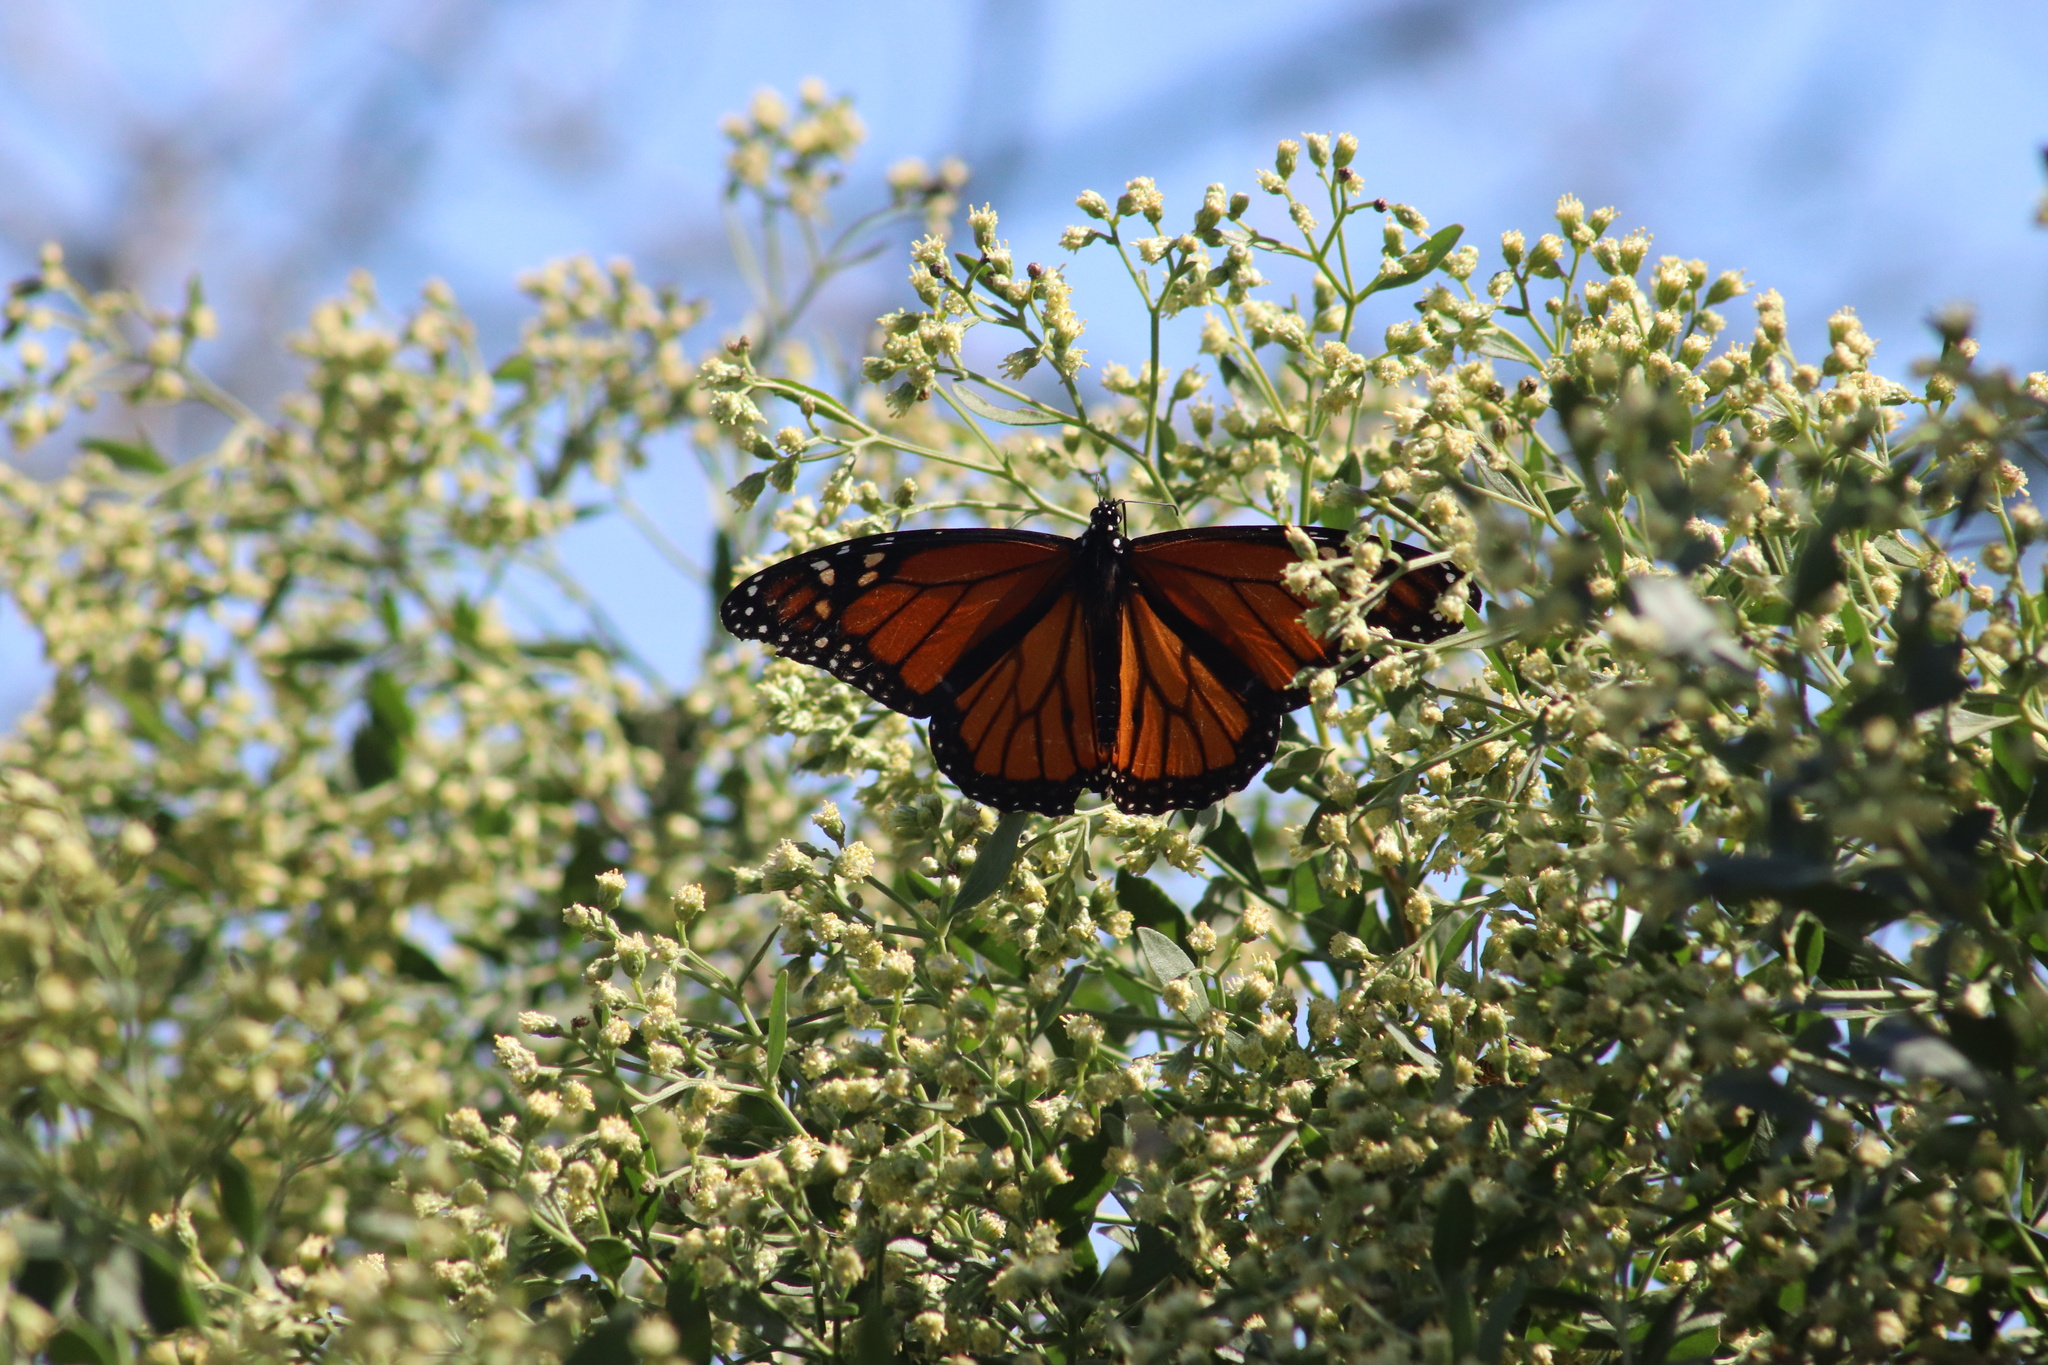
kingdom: Animalia
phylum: Arthropoda
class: Insecta
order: Lepidoptera
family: Nymphalidae
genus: Danaus
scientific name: Danaus plexippus
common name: Monarch
